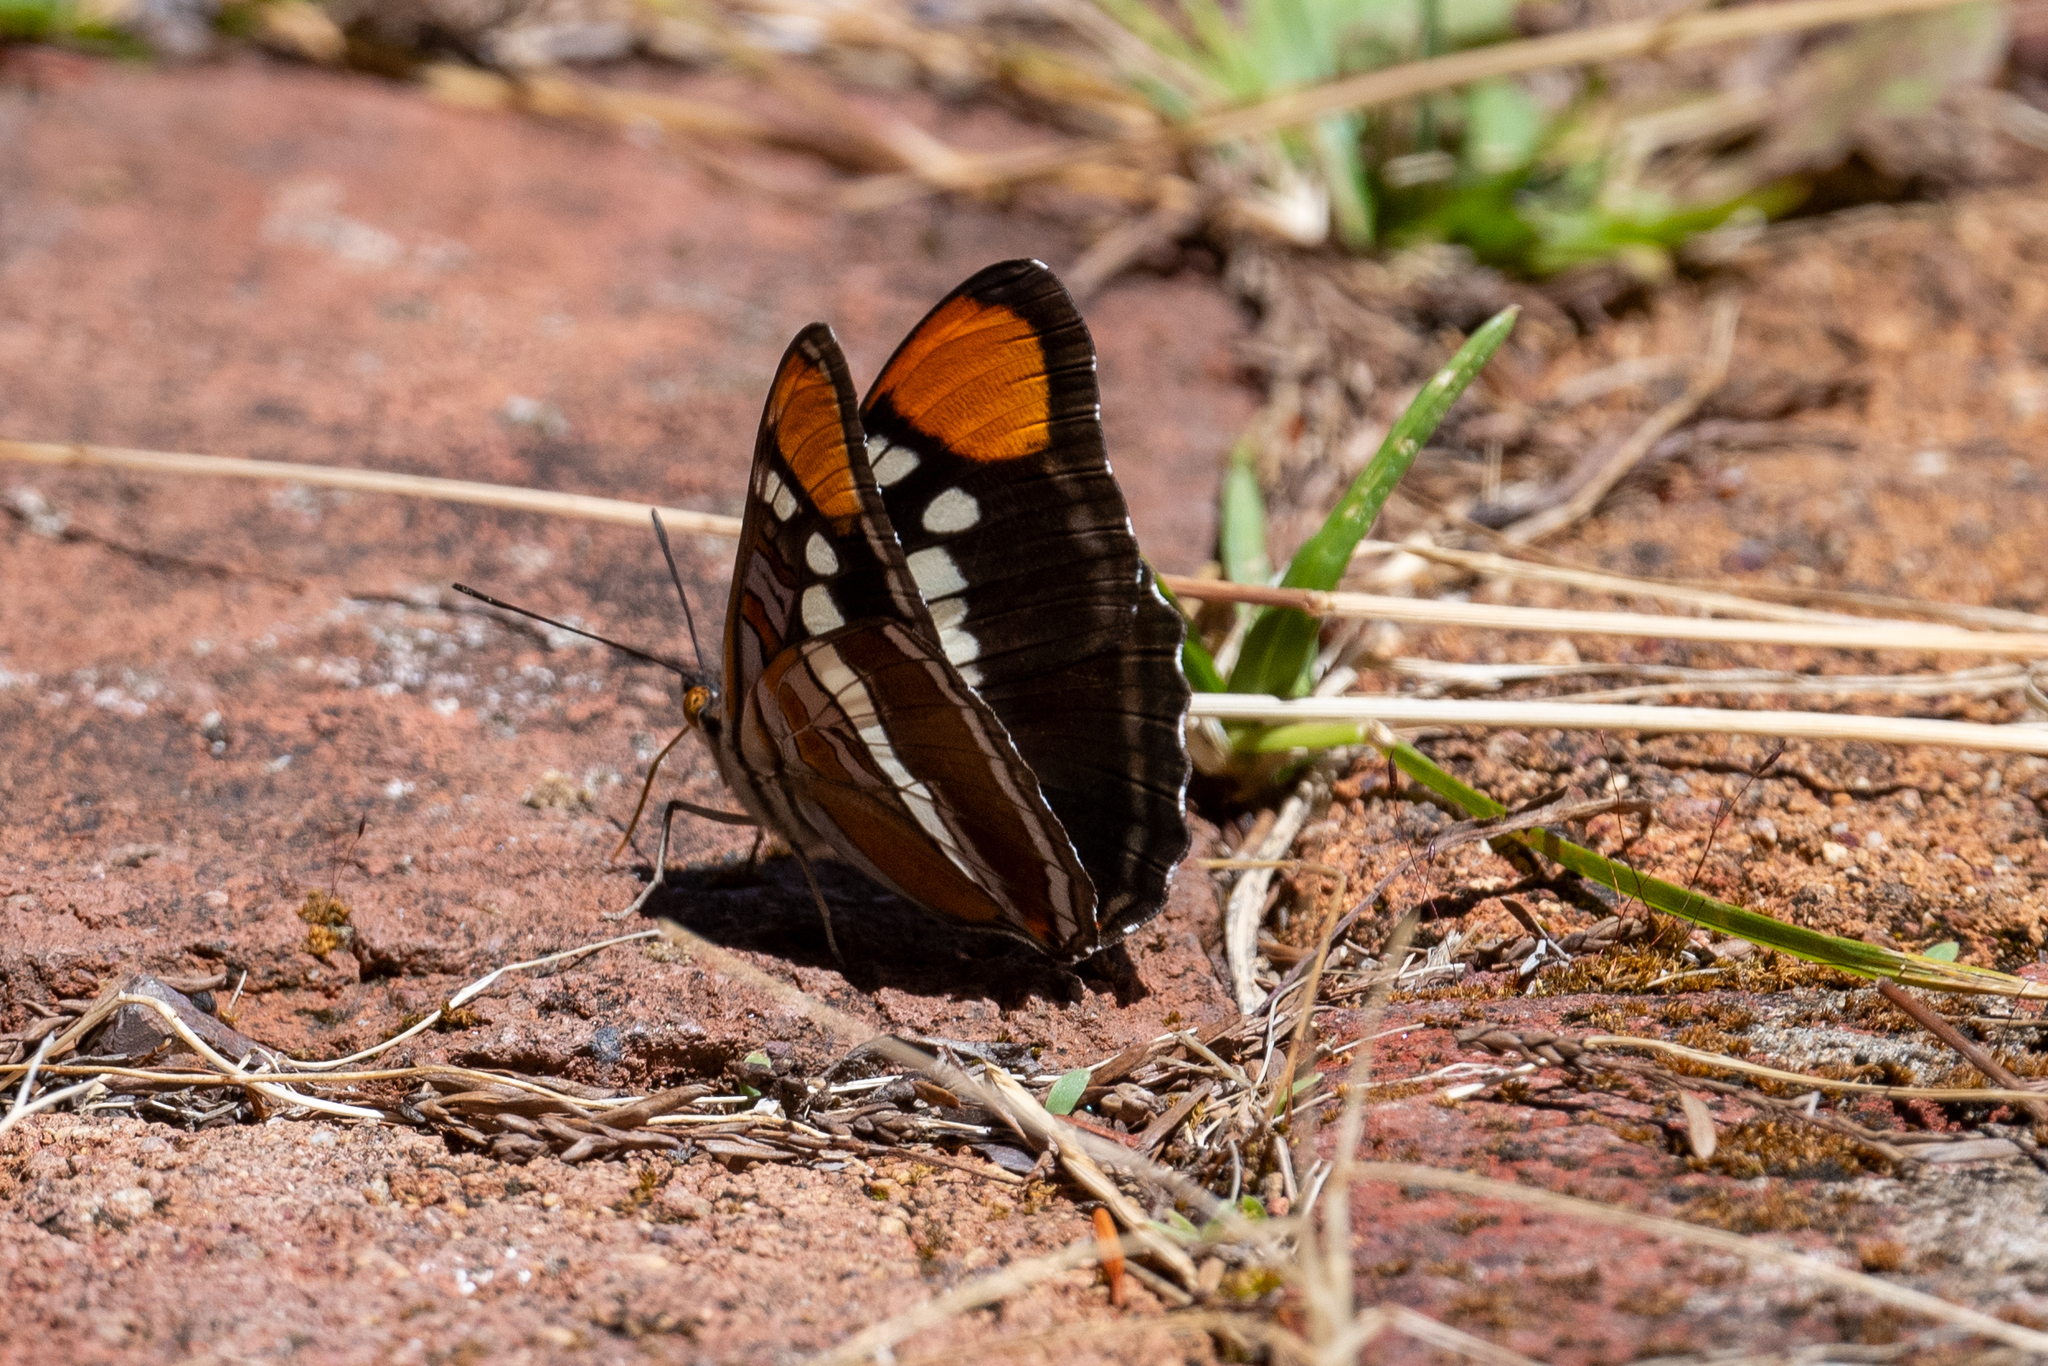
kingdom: Animalia
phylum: Arthropoda
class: Insecta
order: Lepidoptera
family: Nymphalidae
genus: Limenitis
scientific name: Limenitis bredowii
